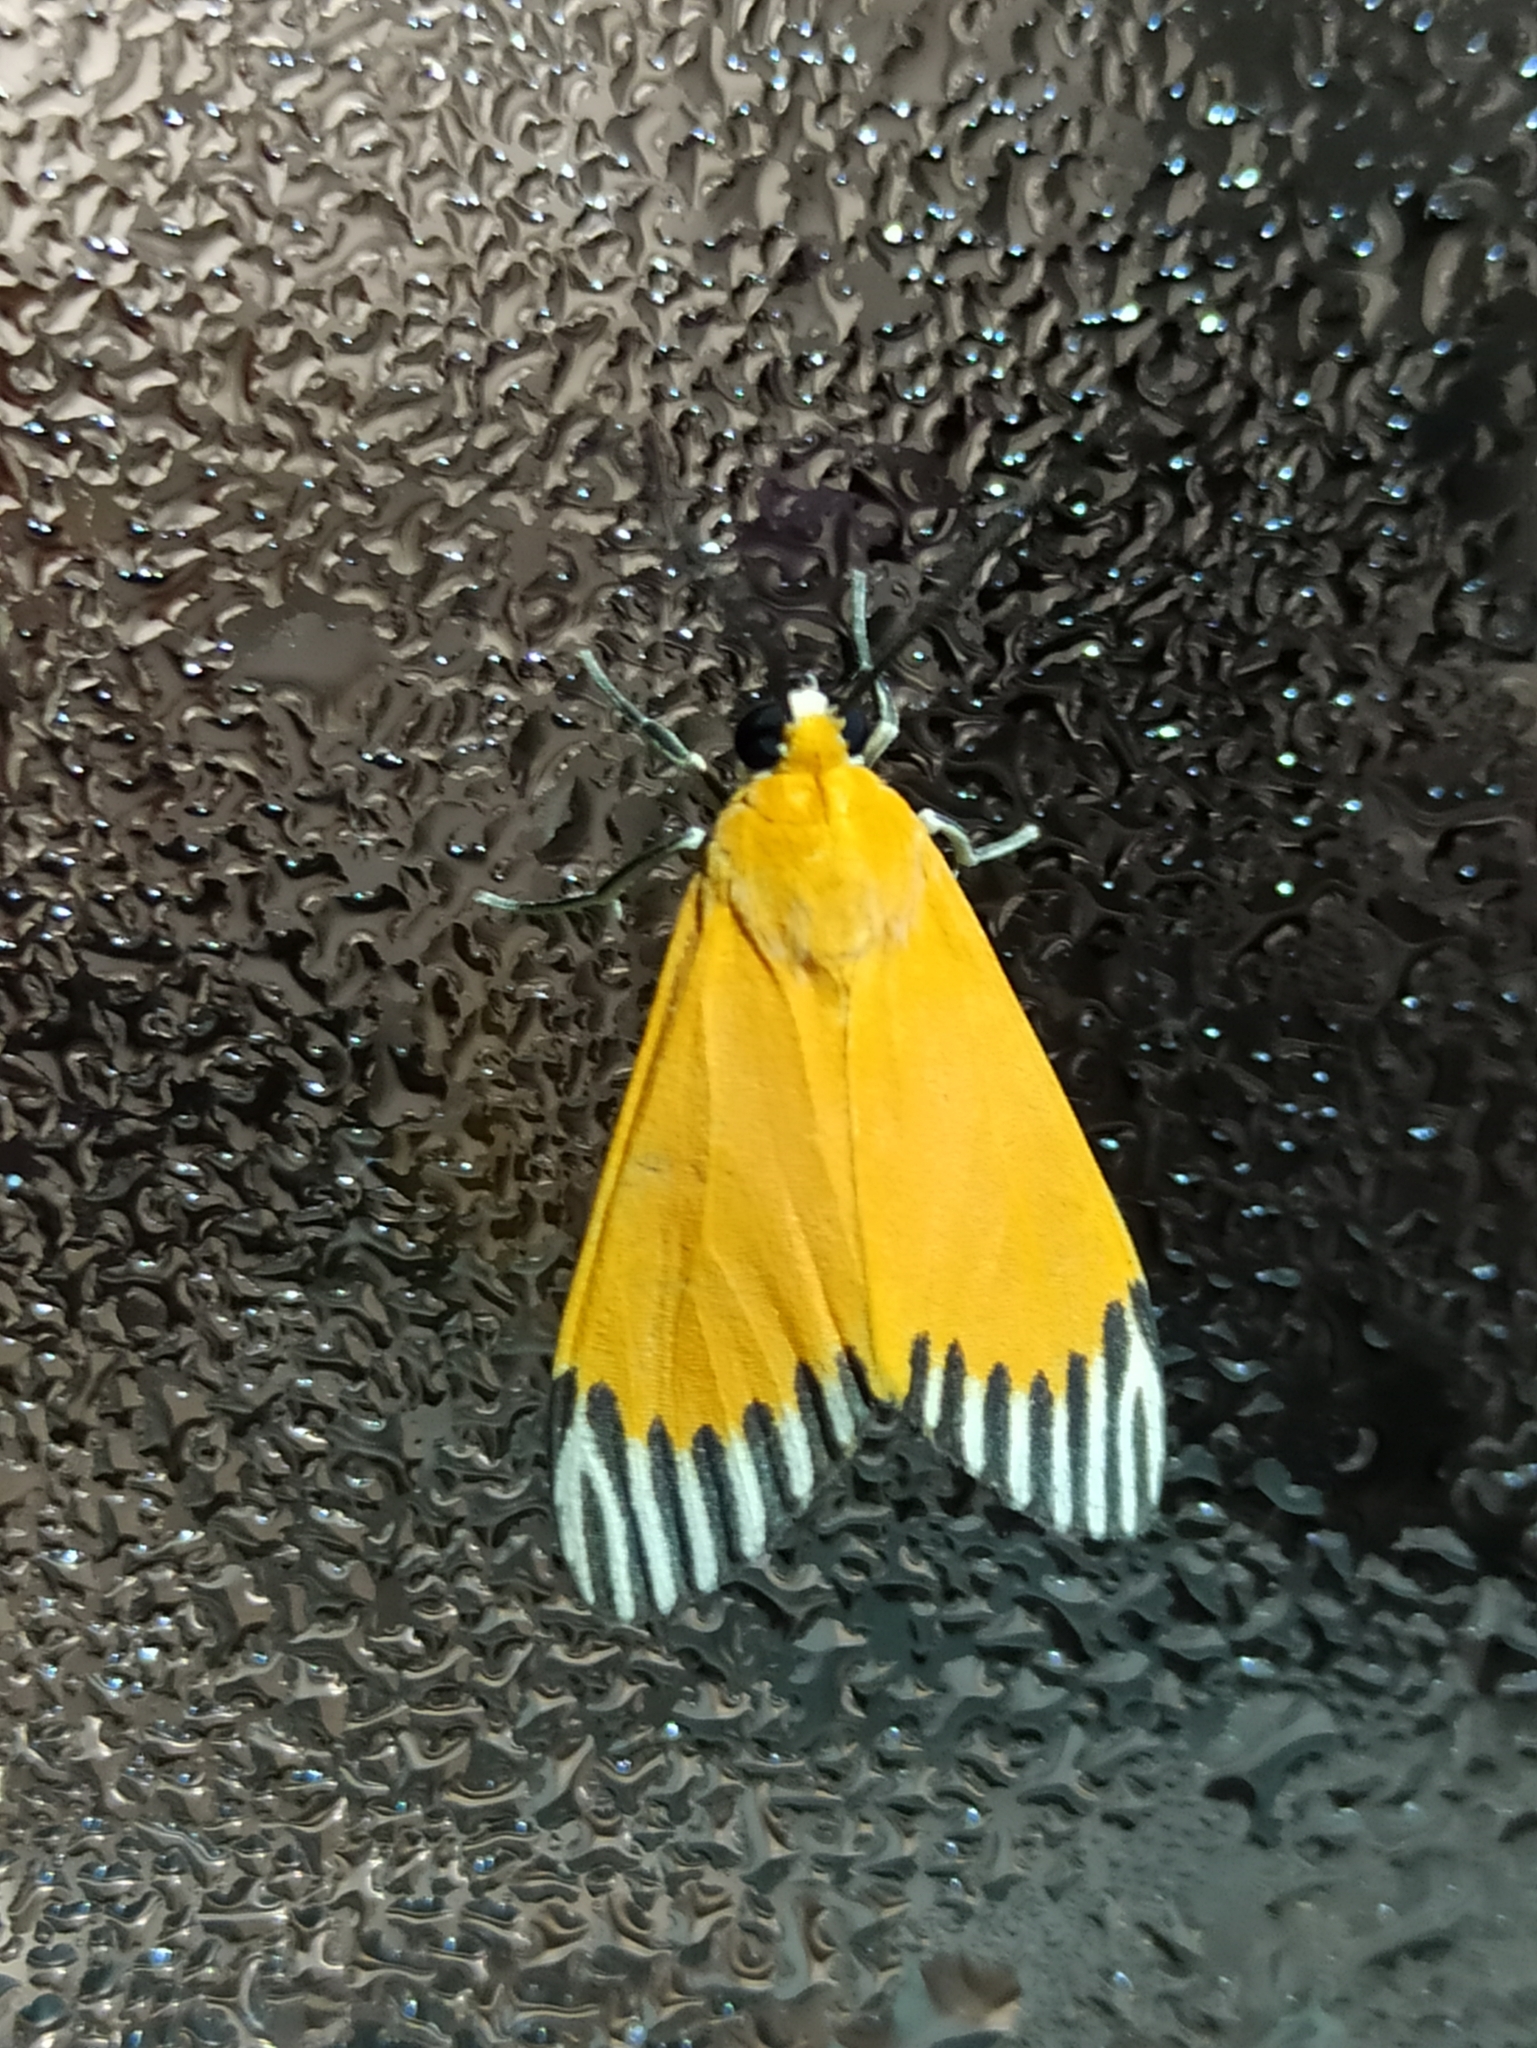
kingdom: Animalia
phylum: Arthropoda
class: Insecta
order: Lepidoptera
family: Erebidae
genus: Uranophora
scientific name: Uranophora walkeri
